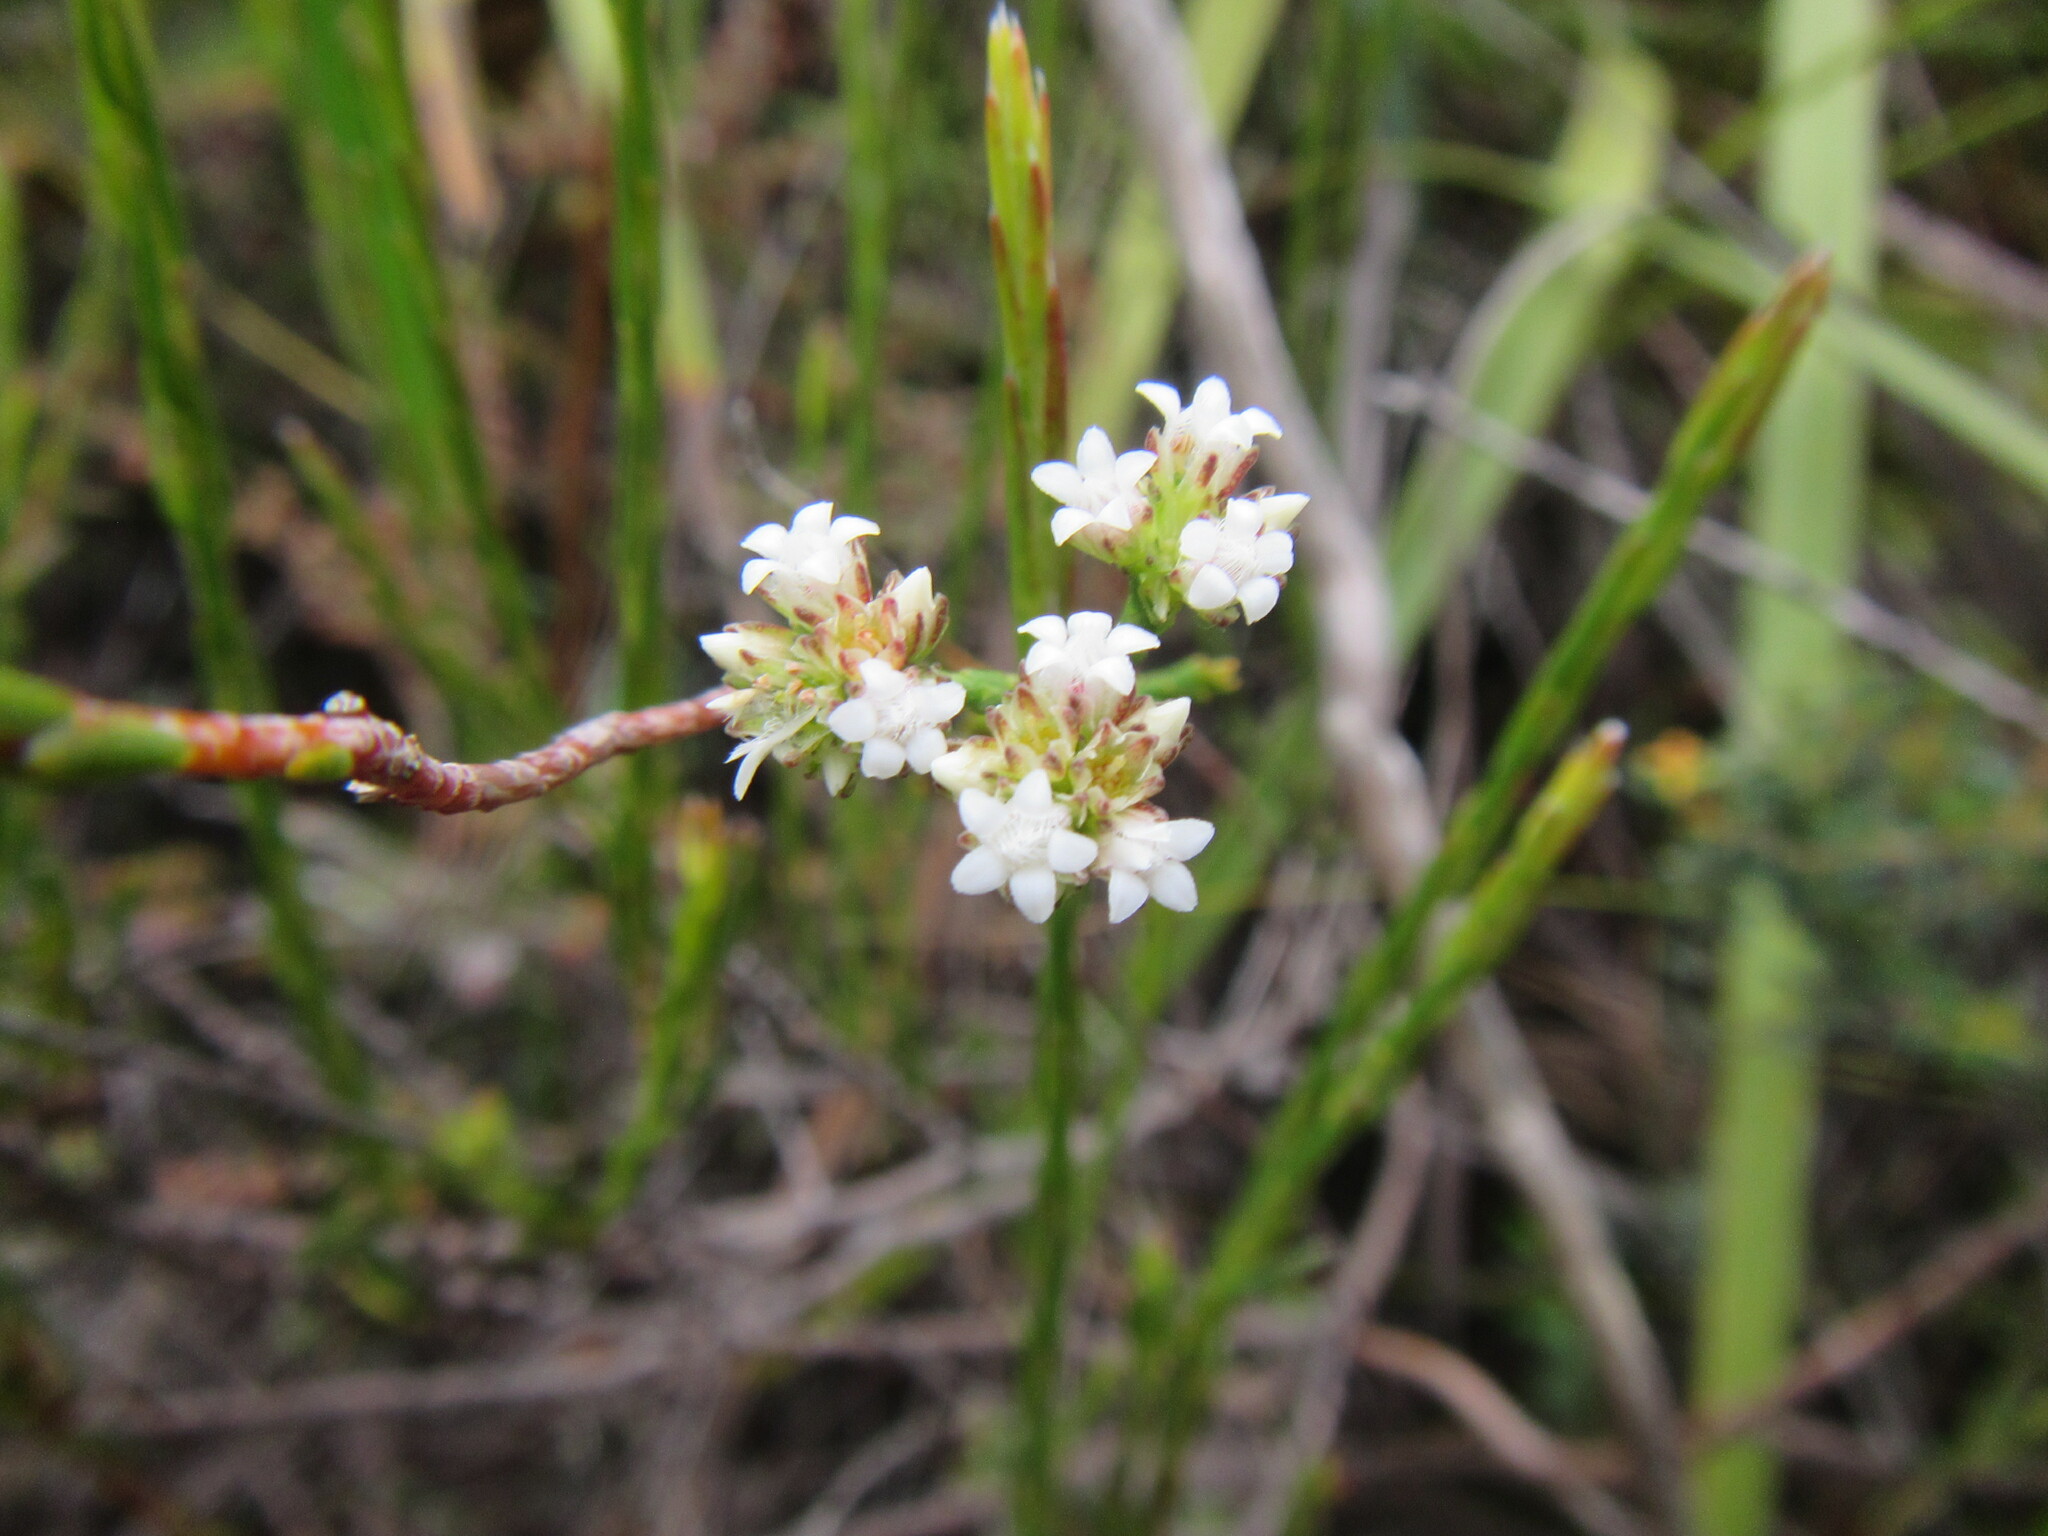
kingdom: Plantae
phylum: Tracheophyta
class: Magnoliopsida
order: Sapindales
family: Rutaceae
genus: Euchaetis
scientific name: Euchaetis elata
